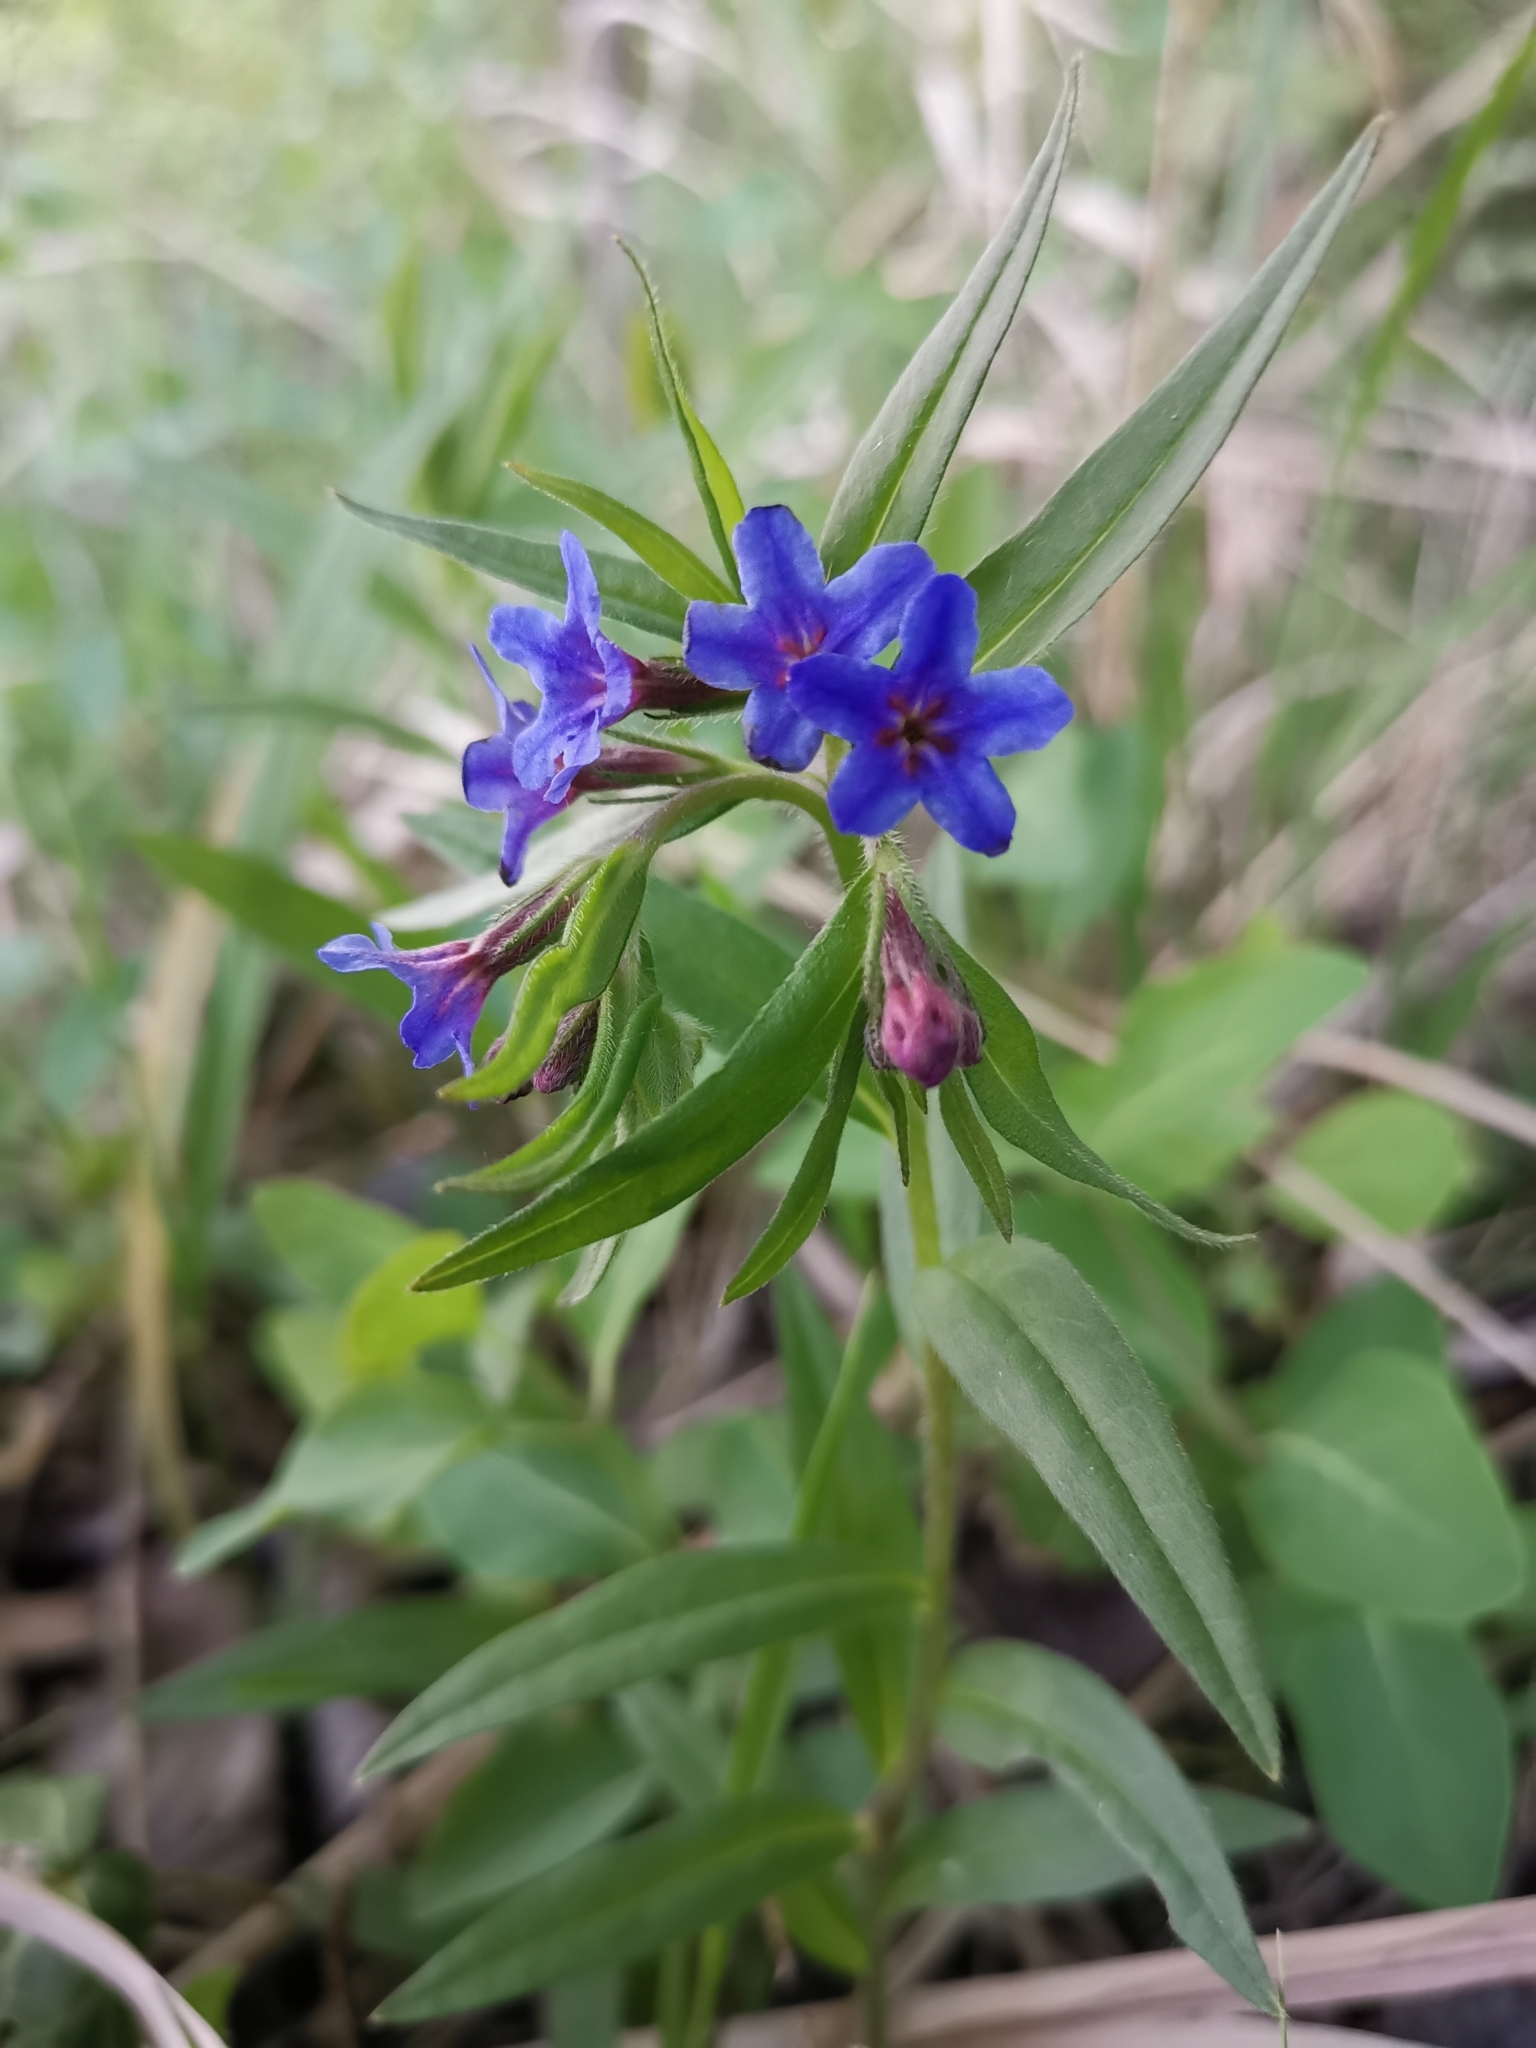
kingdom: Plantae
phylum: Tracheophyta
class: Magnoliopsida
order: Boraginales
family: Boraginaceae
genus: Aegonychon
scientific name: Aegonychon purpurocaeruleum
